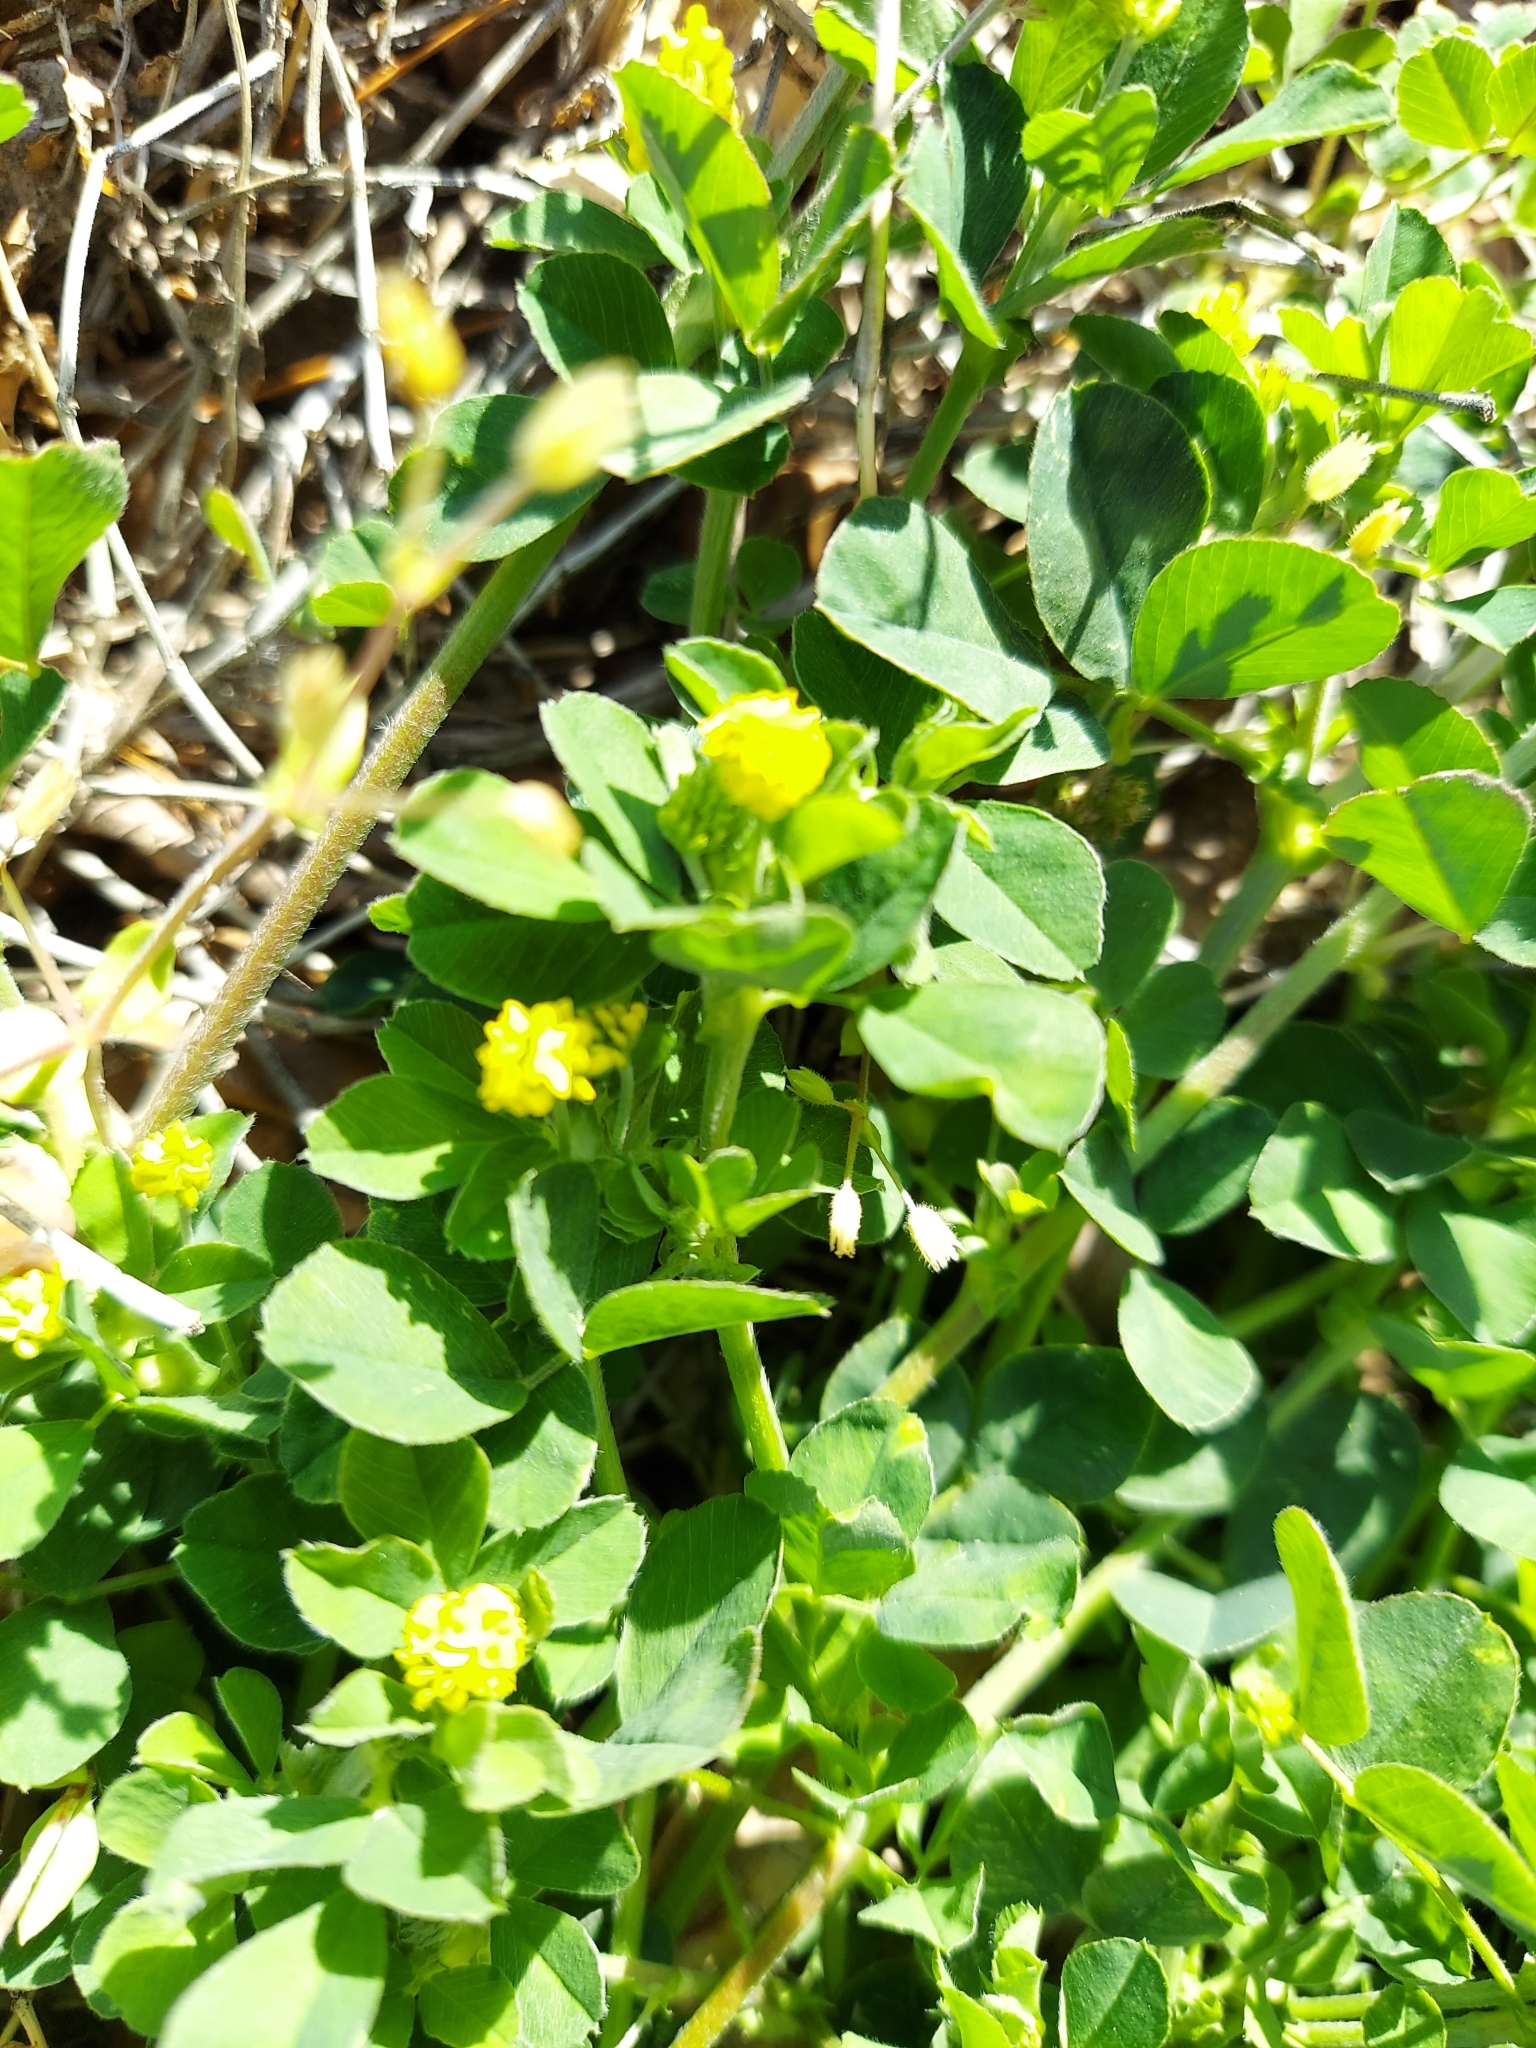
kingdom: Plantae
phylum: Tracheophyta
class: Magnoliopsida
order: Fabales
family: Fabaceae
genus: Medicago
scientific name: Medicago lupulina
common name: Black medick
